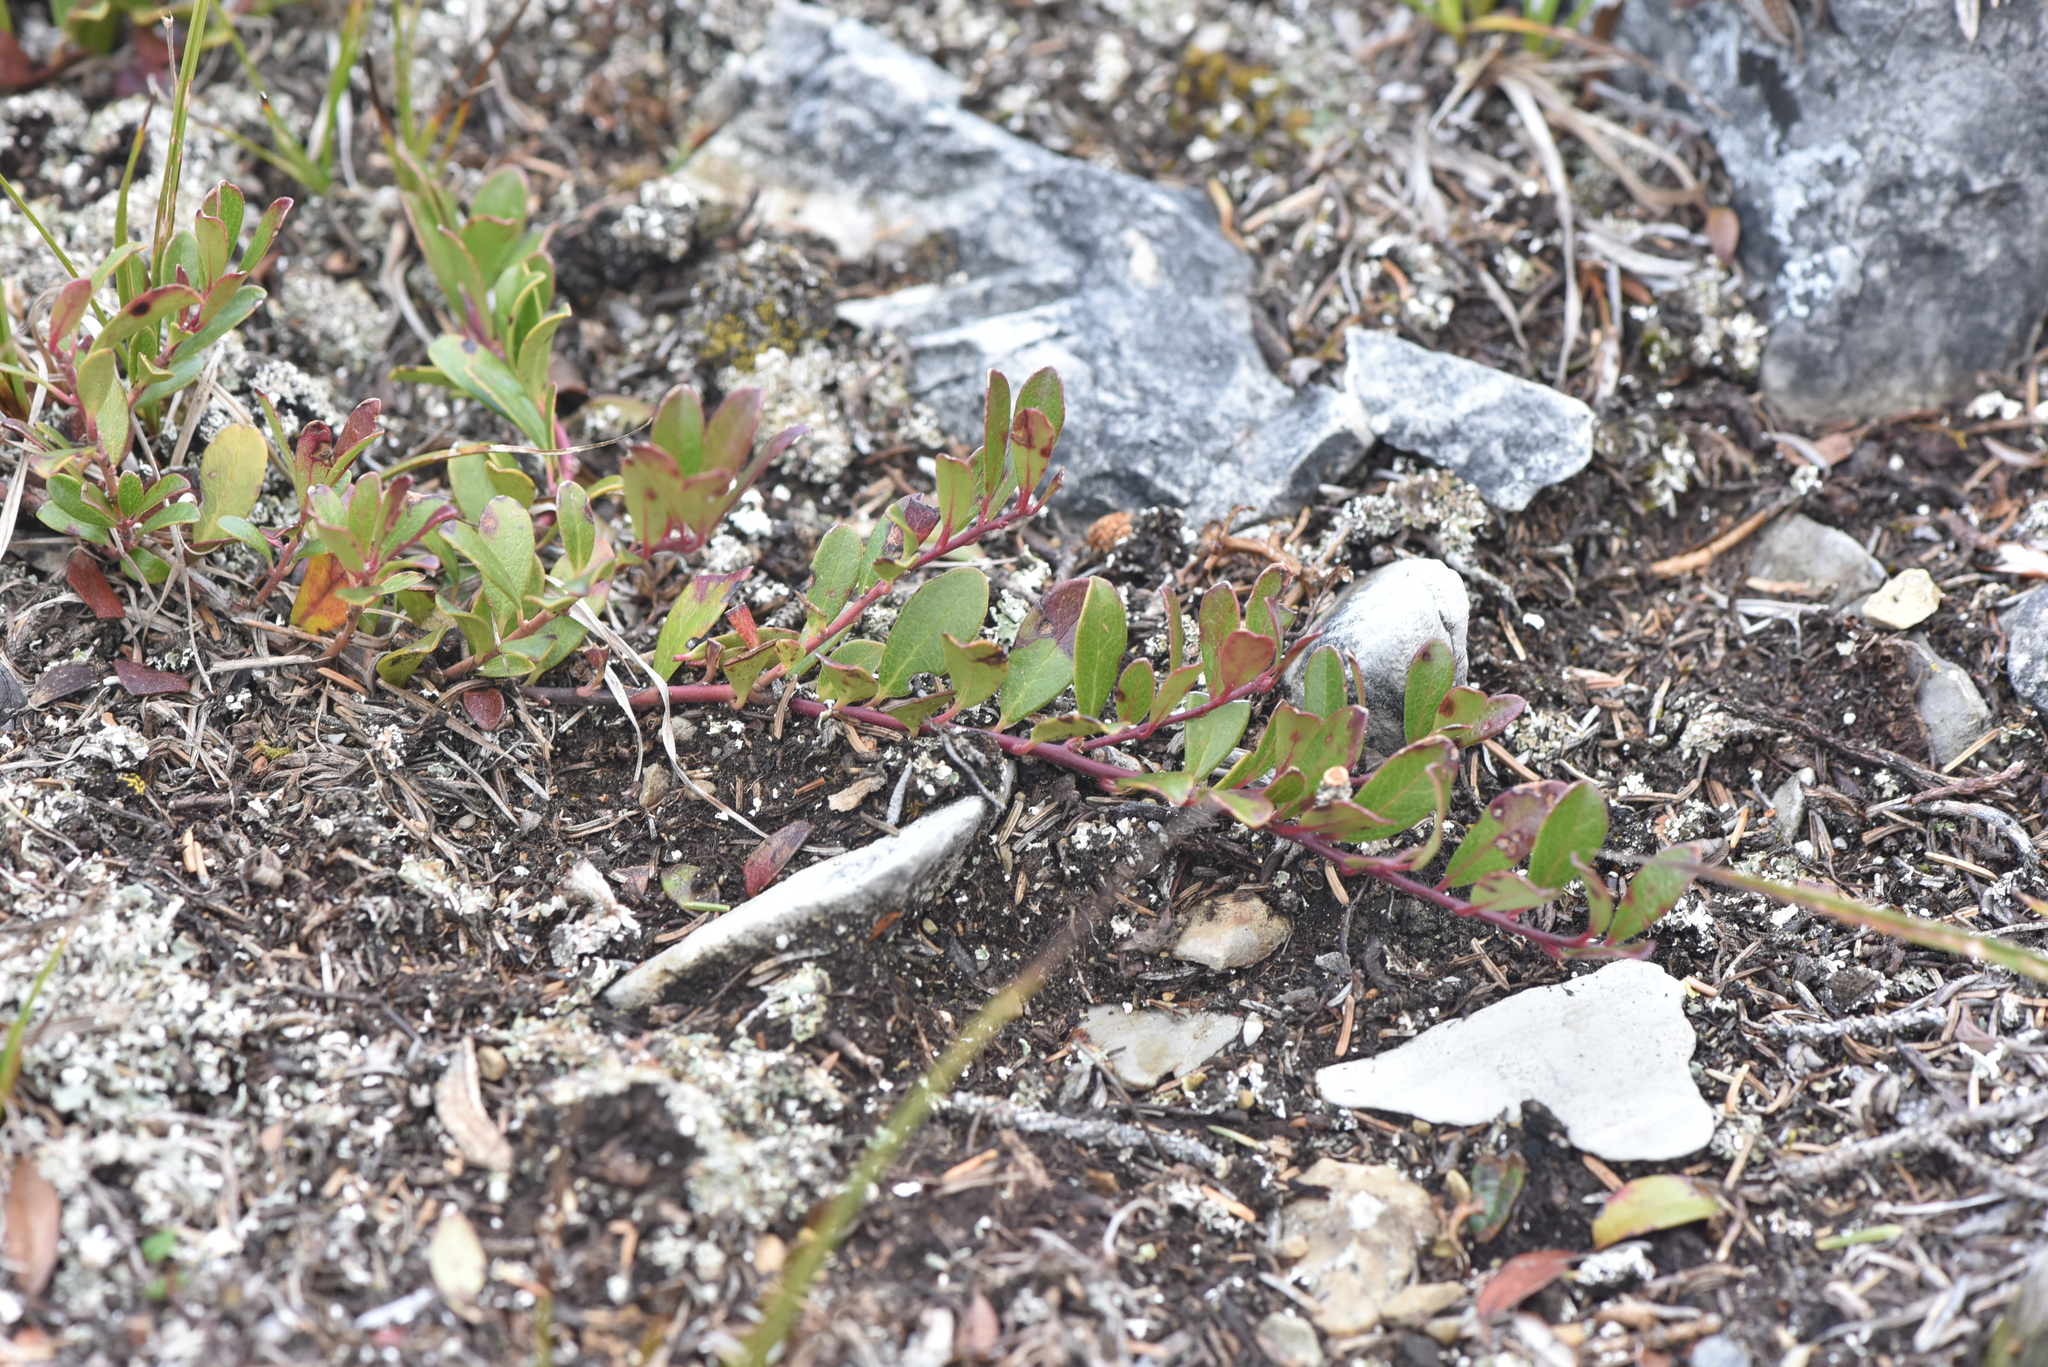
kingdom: Plantae
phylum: Tracheophyta
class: Magnoliopsida
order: Ericales
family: Ericaceae
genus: Arctostaphylos
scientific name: Arctostaphylos uva-ursi
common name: Bearberry
